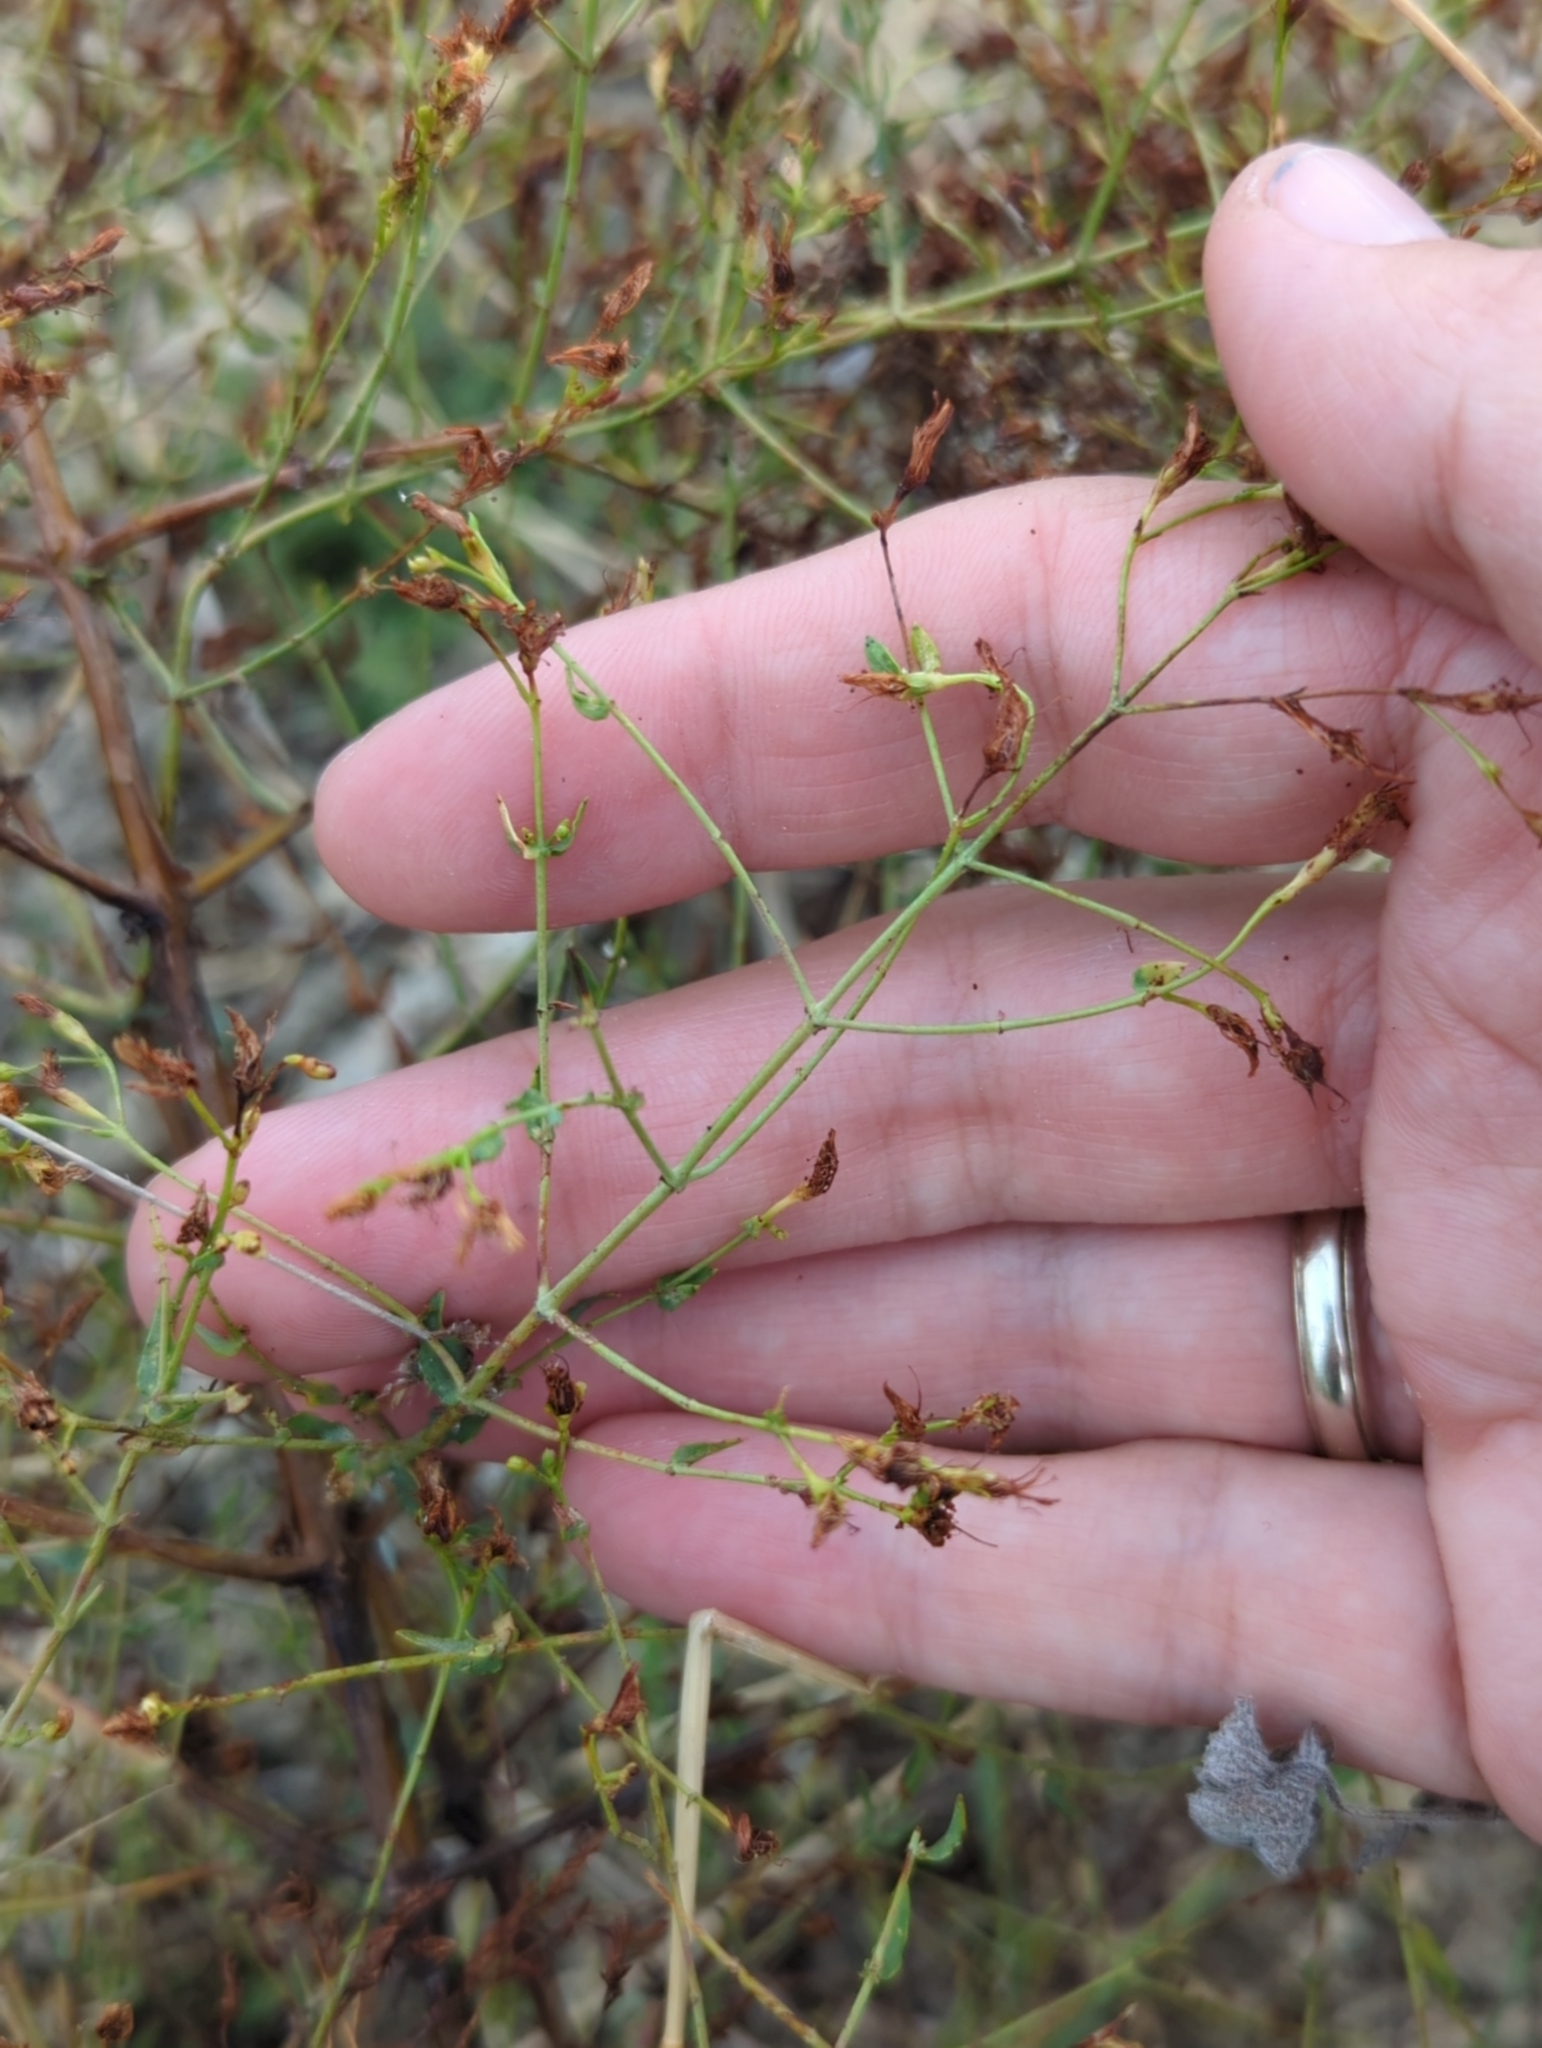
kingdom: Plantae
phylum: Tracheophyta
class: Magnoliopsida
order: Malpighiales
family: Hypericaceae
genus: Hypericum
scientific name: Hypericum triquetrifolium
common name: Tangled hypericum
